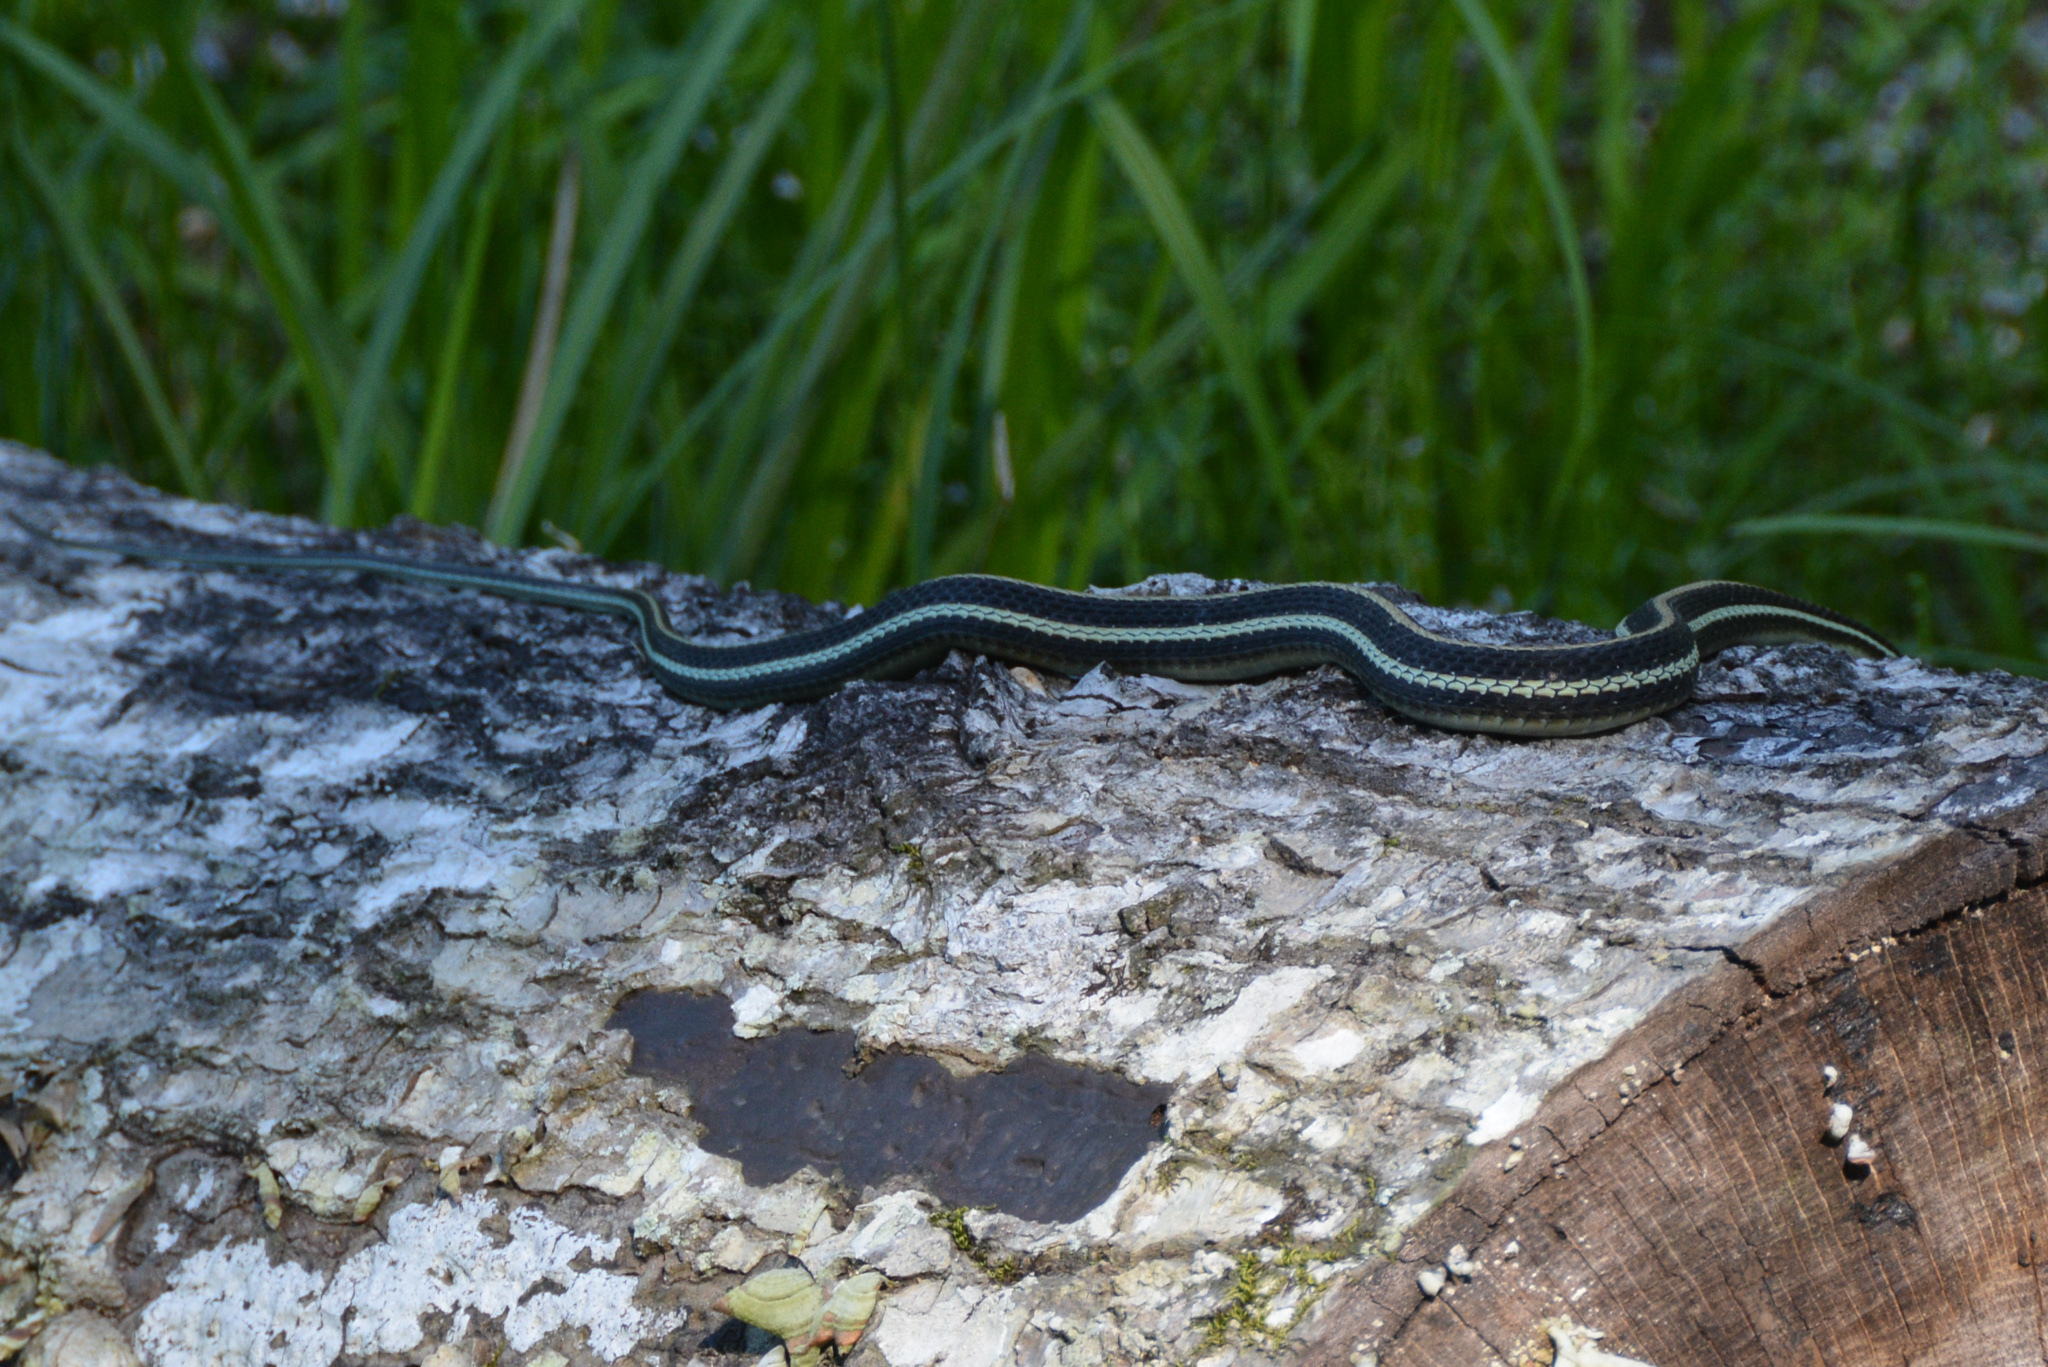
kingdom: Animalia
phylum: Chordata
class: Squamata
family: Colubridae
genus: Thamnophis
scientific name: Thamnophis proximus
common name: Western ribbon snake
